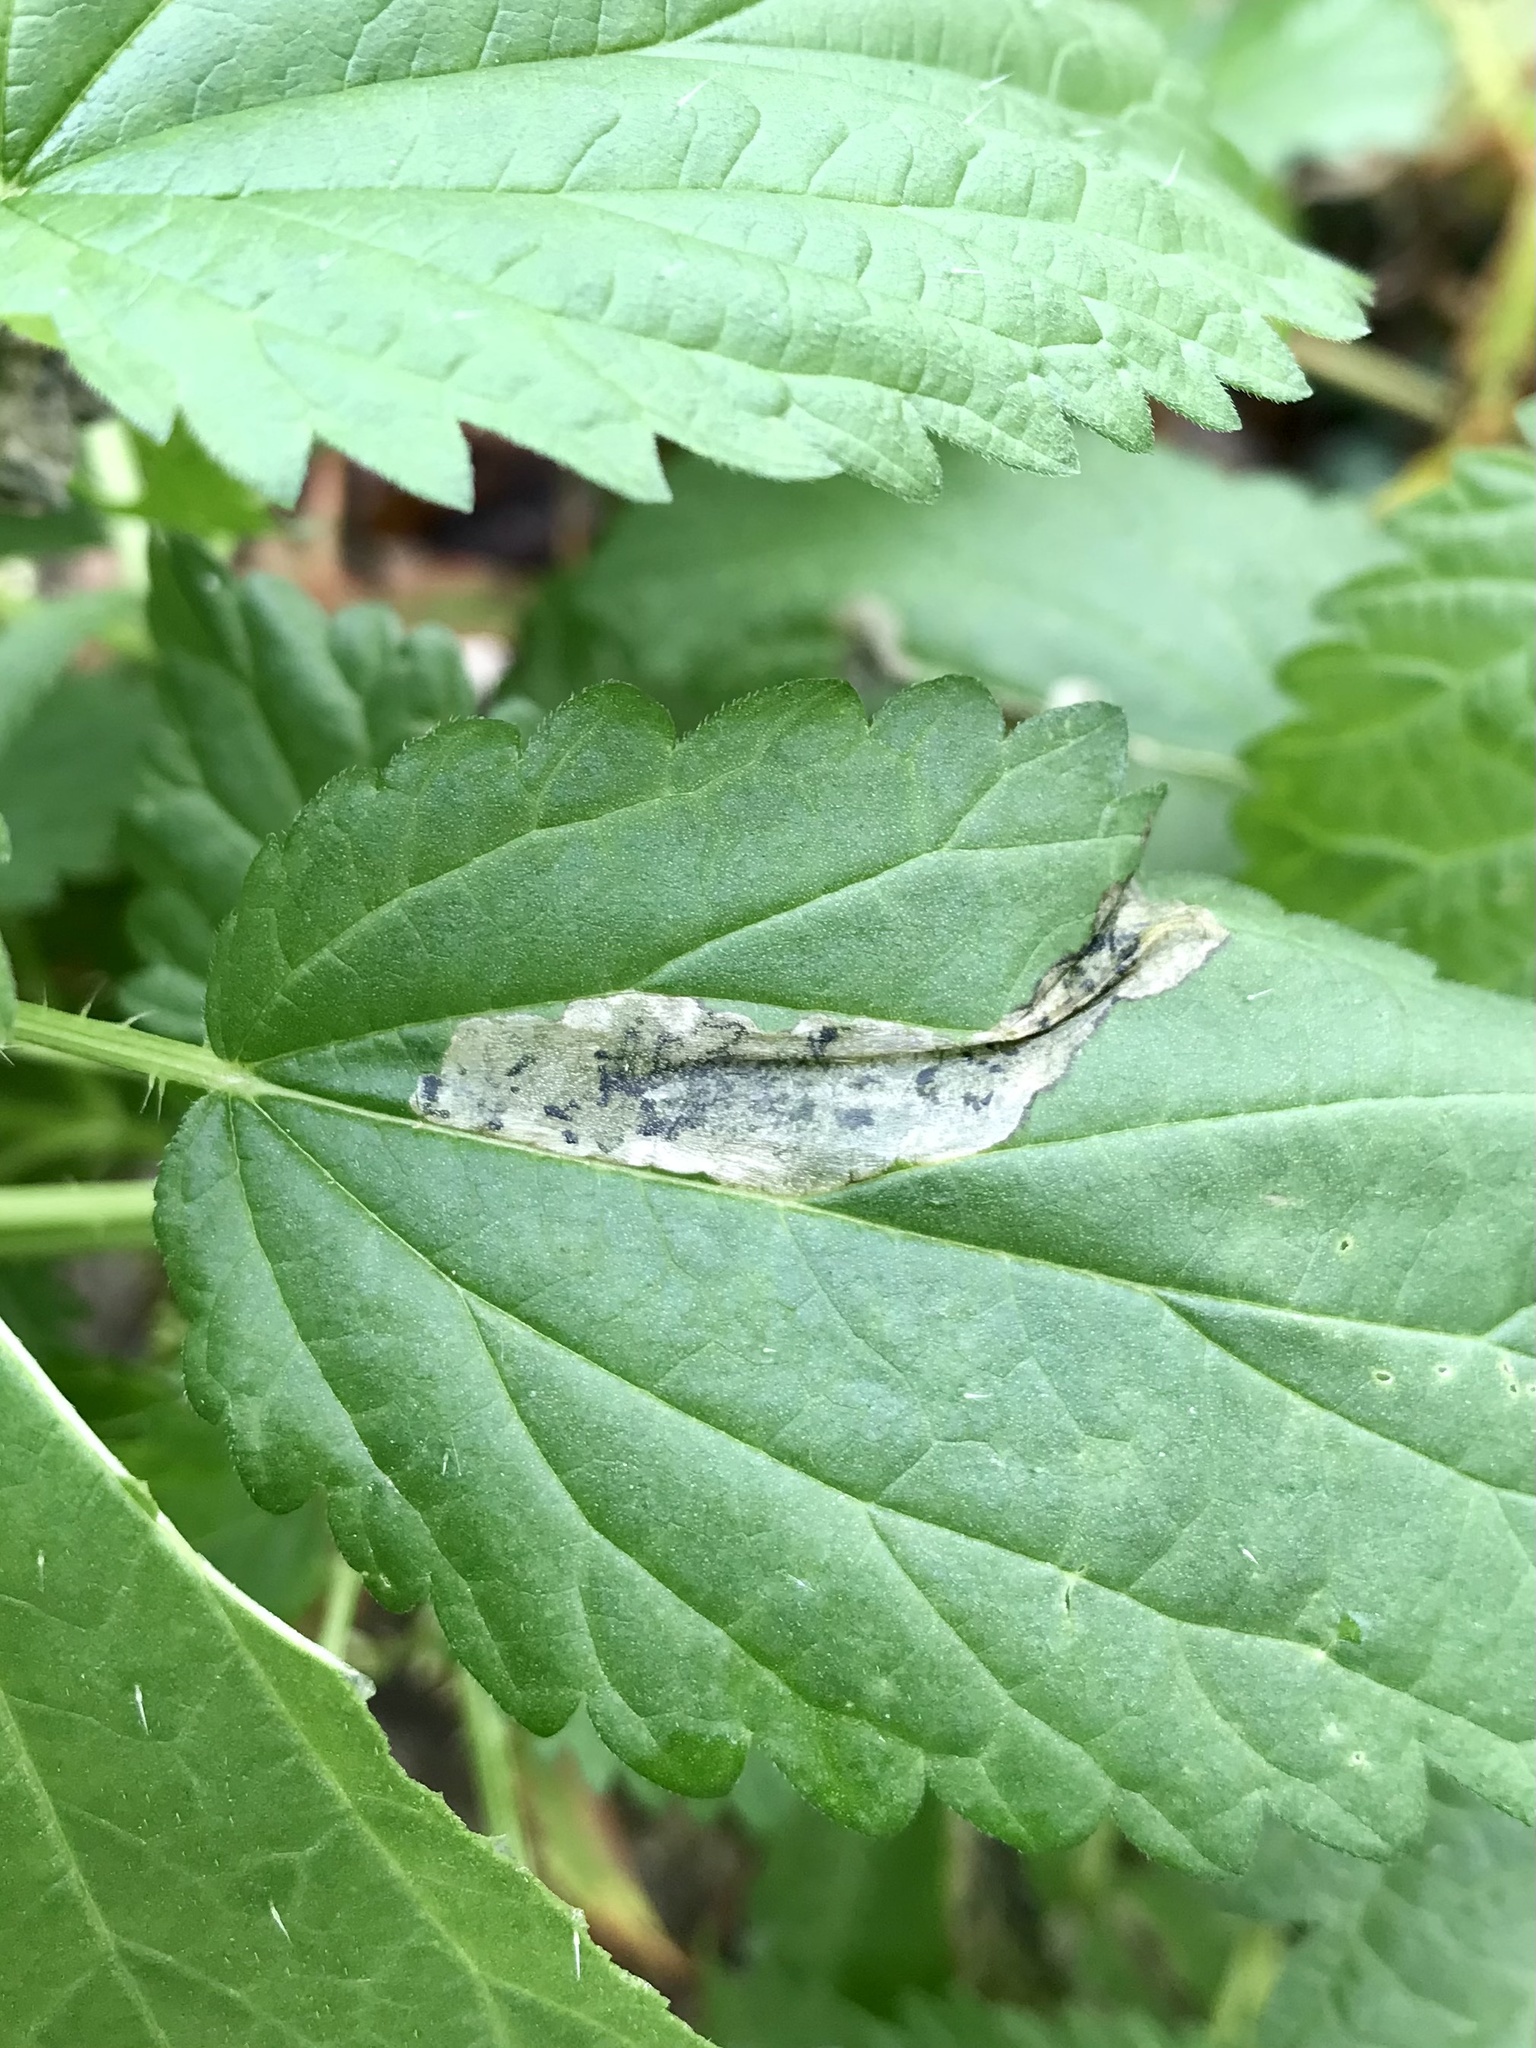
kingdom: Animalia
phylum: Arthropoda
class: Insecta
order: Diptera
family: Agromyzidae
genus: Agromyza
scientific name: Agromyza pseudoreptans
